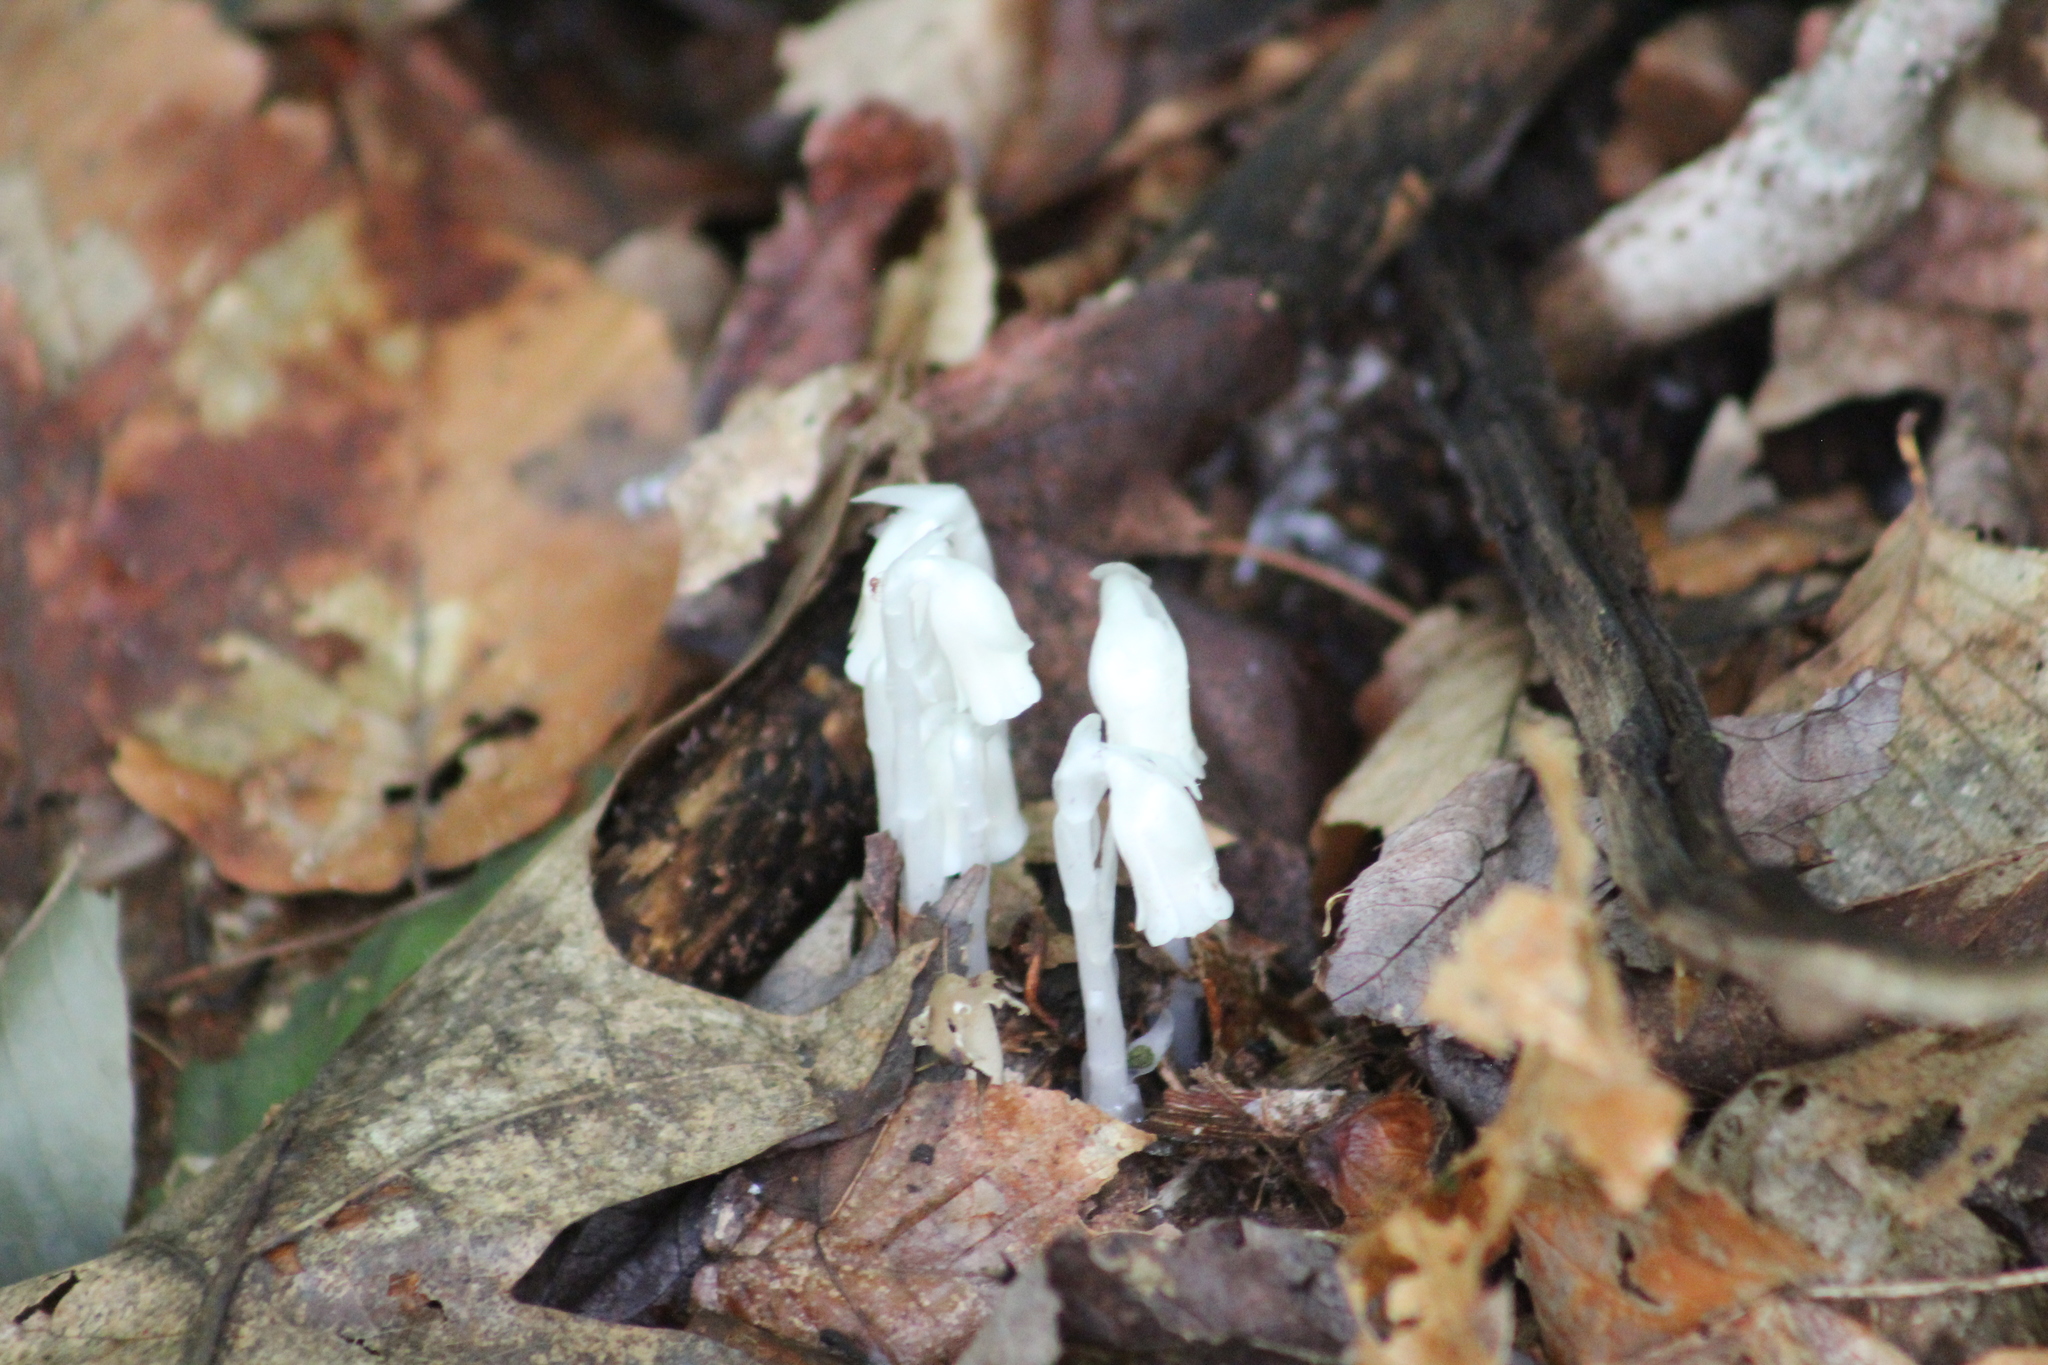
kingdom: Plantae
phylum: Tracheophyta
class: Magnoliopsida
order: Ericales
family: Ericaceae
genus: Monotropa
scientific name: Monotropa uniflora
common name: Convulsion root
